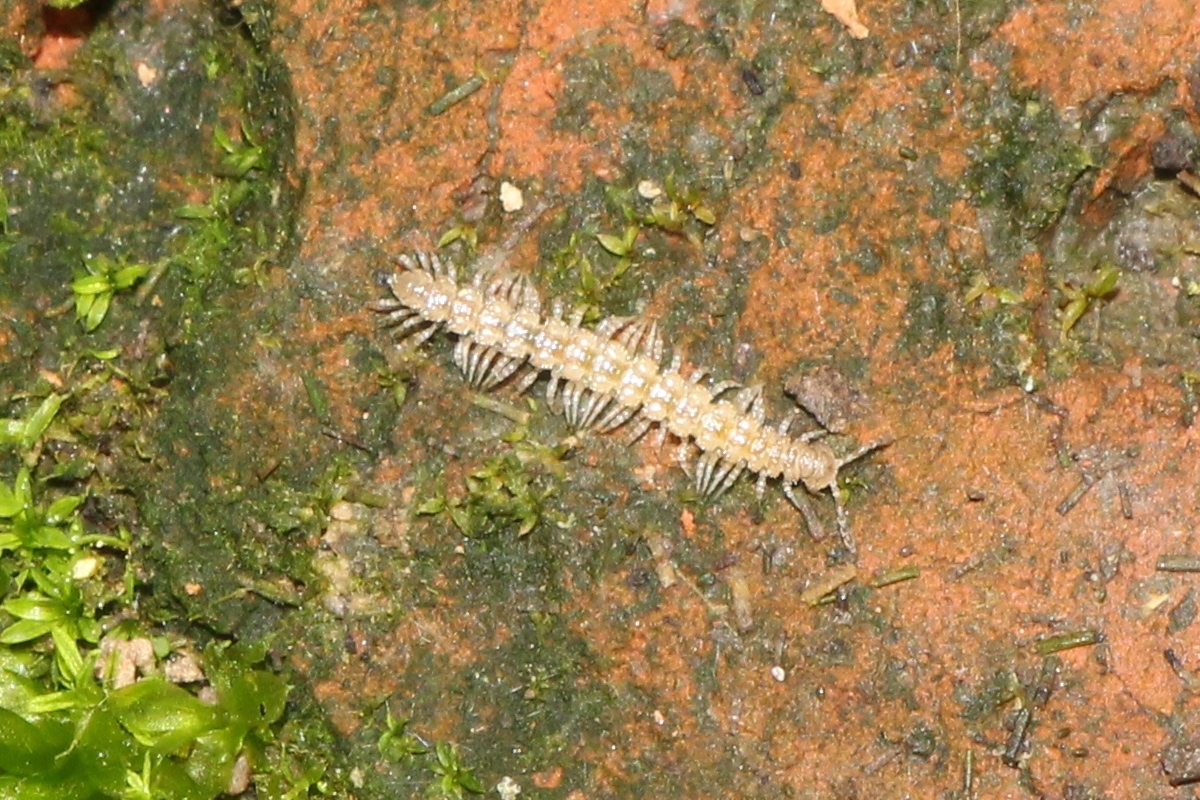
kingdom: Animalia
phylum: Arthropoda
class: Diplopoda
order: Polydesmida
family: Polydesmidae
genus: Brachydesmus
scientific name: Brachydesmus superus
